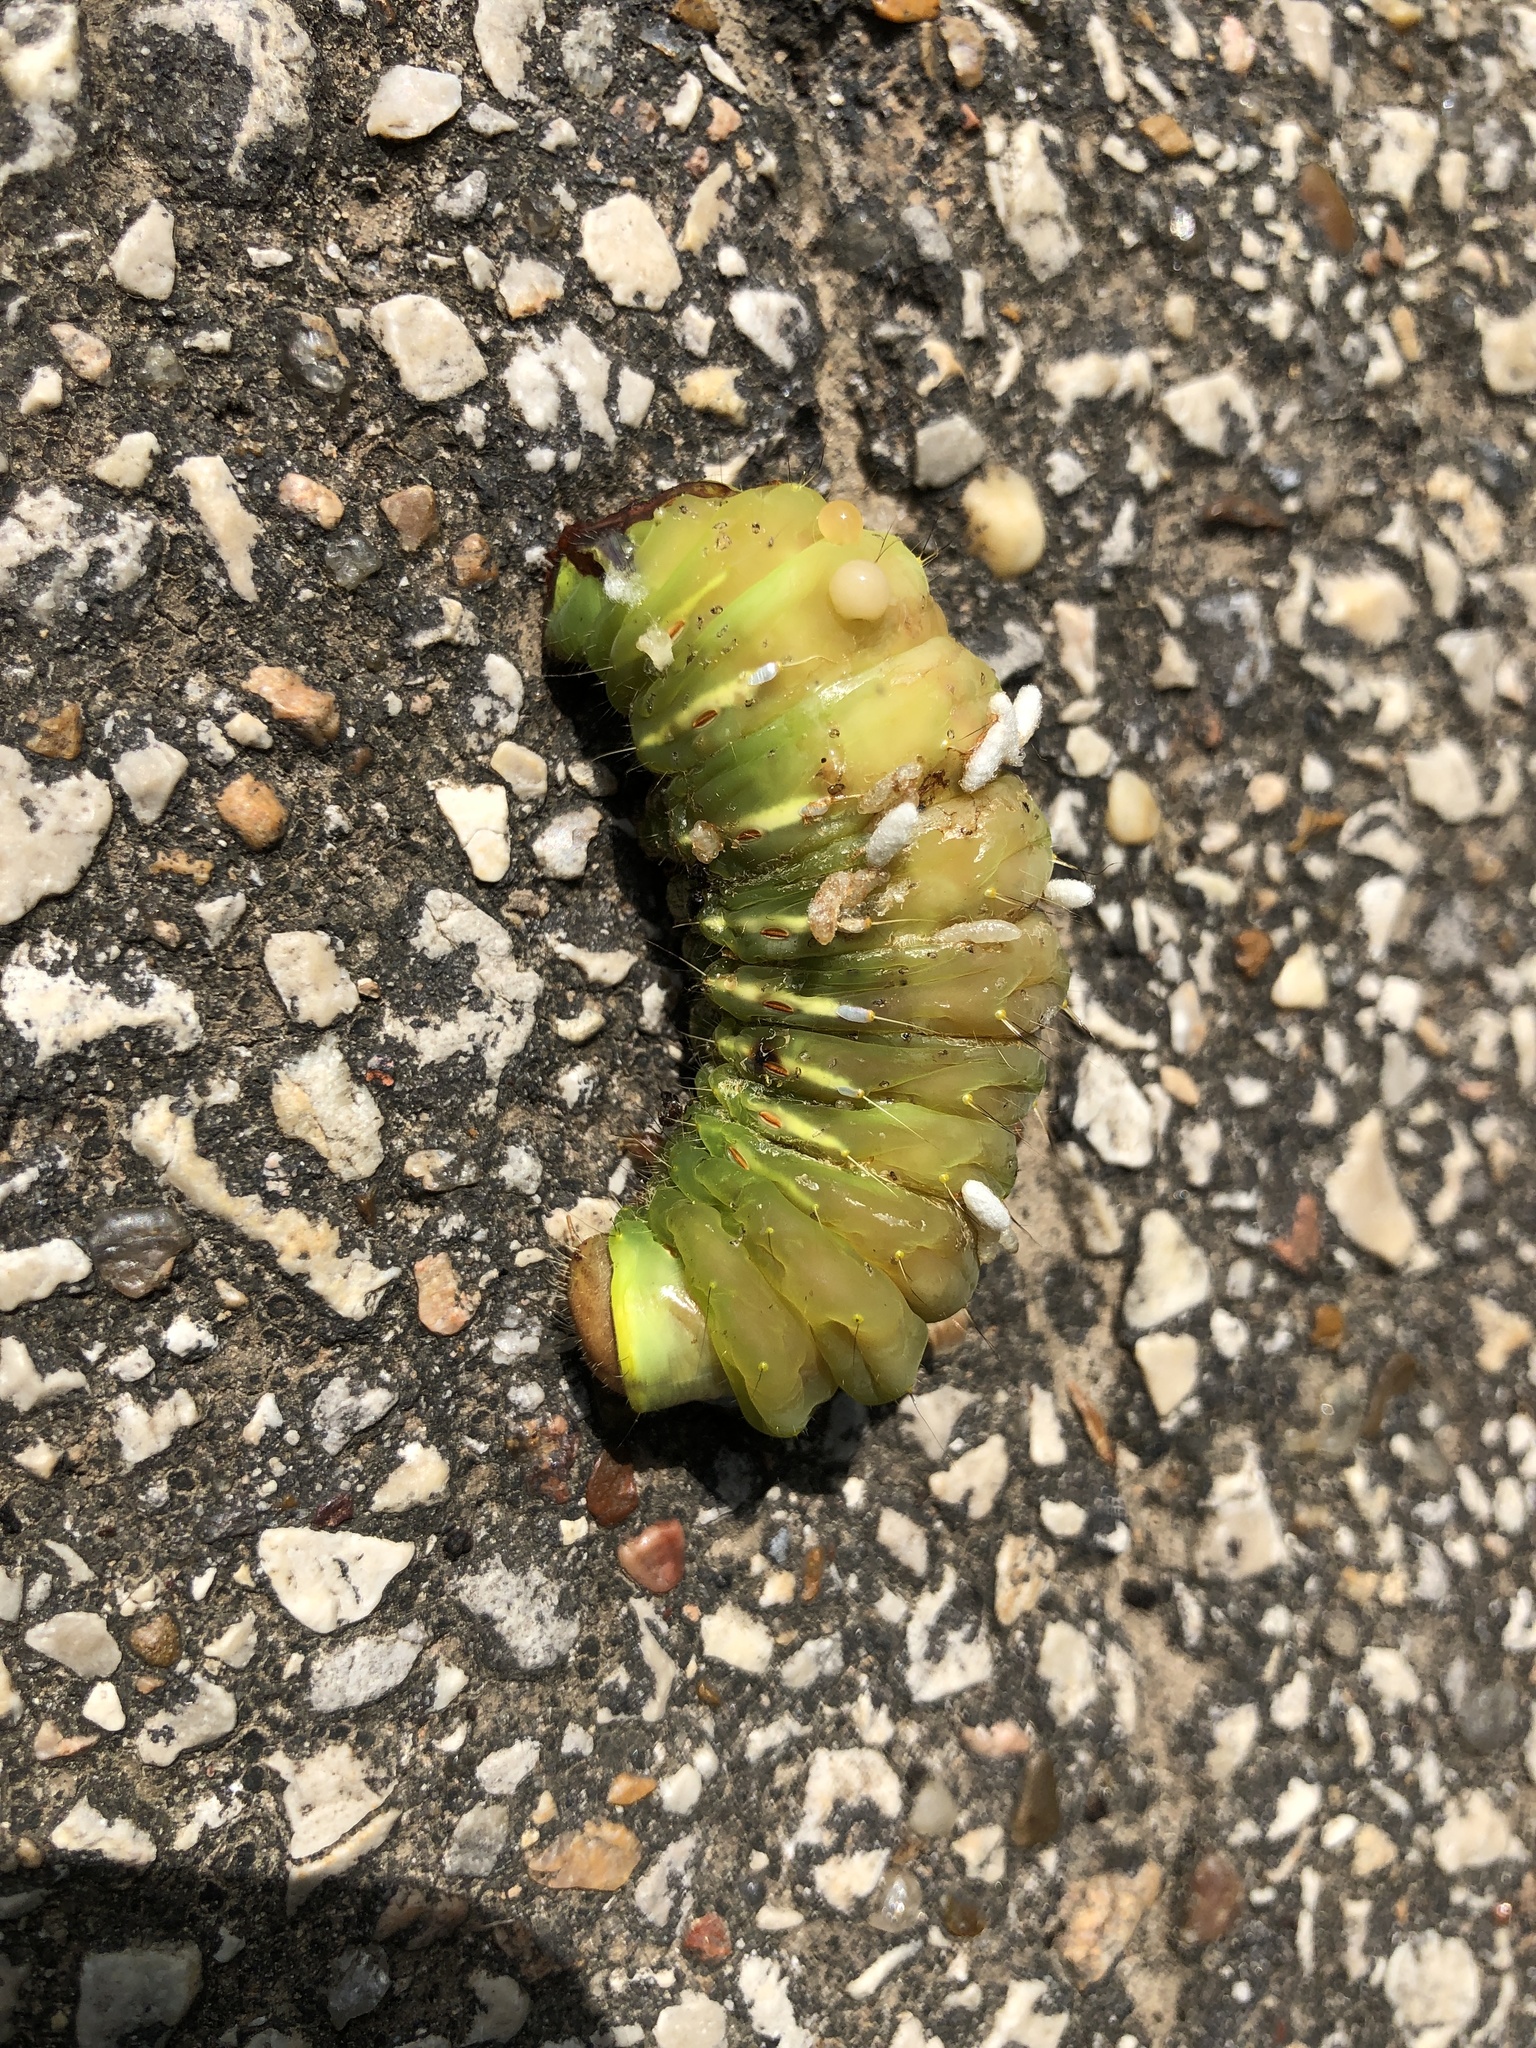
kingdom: Animalia
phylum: Arthropoda
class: Insecta
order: Lepidoptera
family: Saturniidae
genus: Antheraea
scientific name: Antheraea polyphemus
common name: Polyphemus moth
